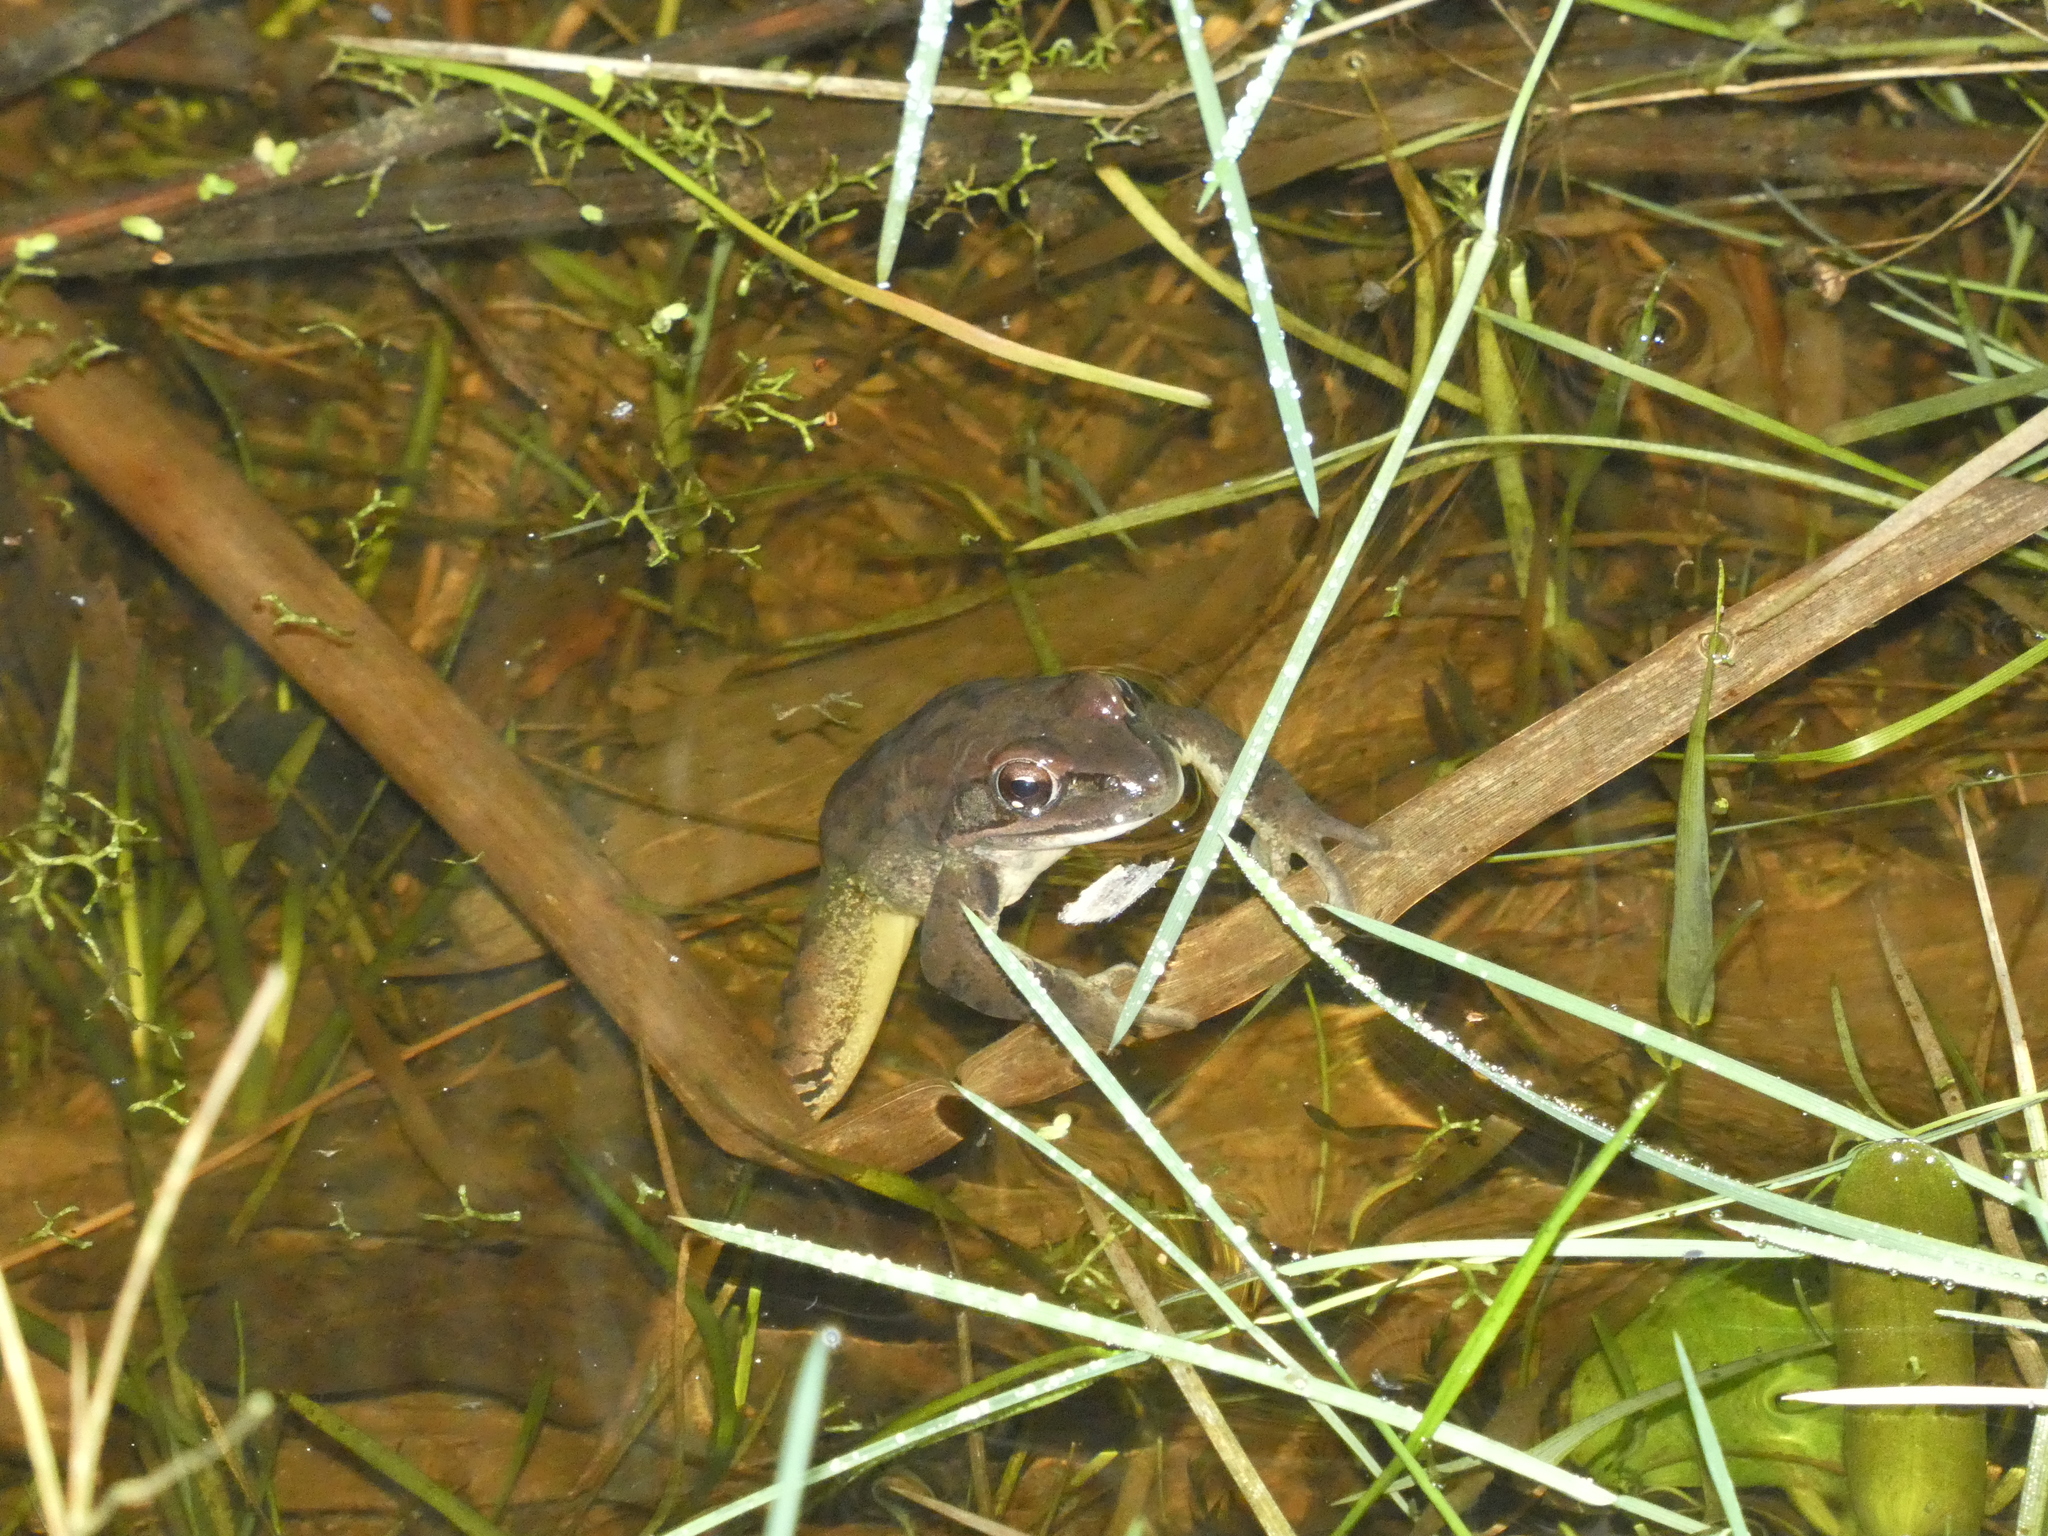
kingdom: Animalia
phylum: Chordata
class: Amphibia
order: Anura
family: Ranidae
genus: Rana
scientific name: Rana dalmatina
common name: Agile frog
